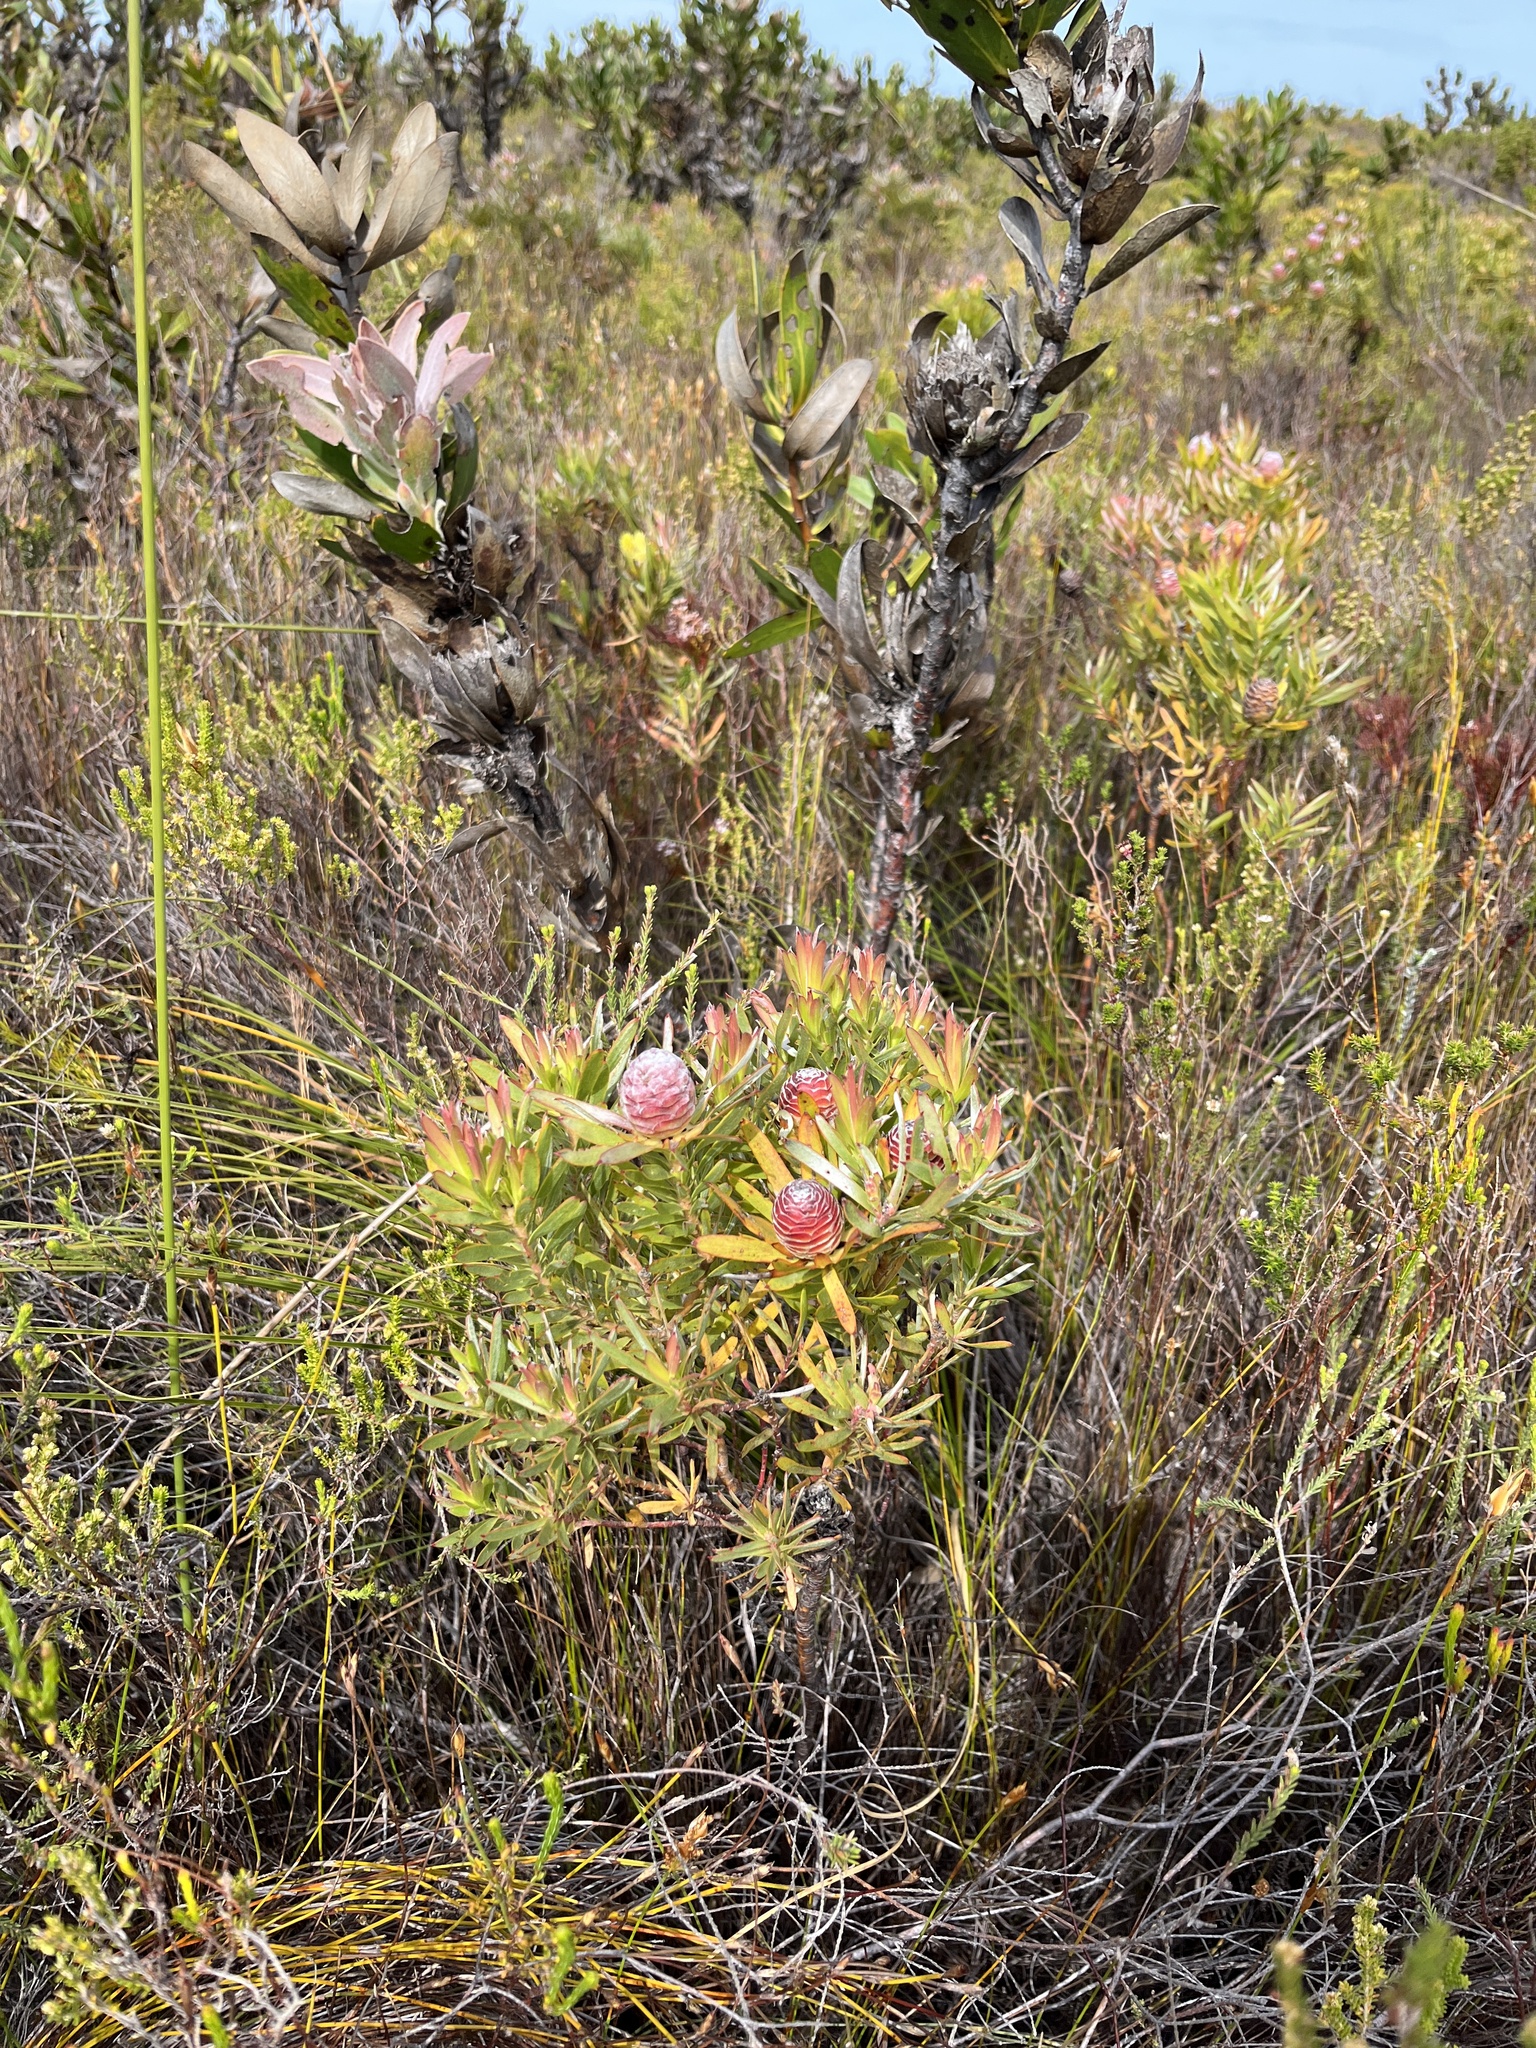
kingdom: Plantae
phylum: Tracheophyta
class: Magnoliopsida
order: Proteales
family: Proteaceae
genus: Leucadendron
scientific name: Leucadendron xanthoconus
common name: Sickle-leaf conebush
